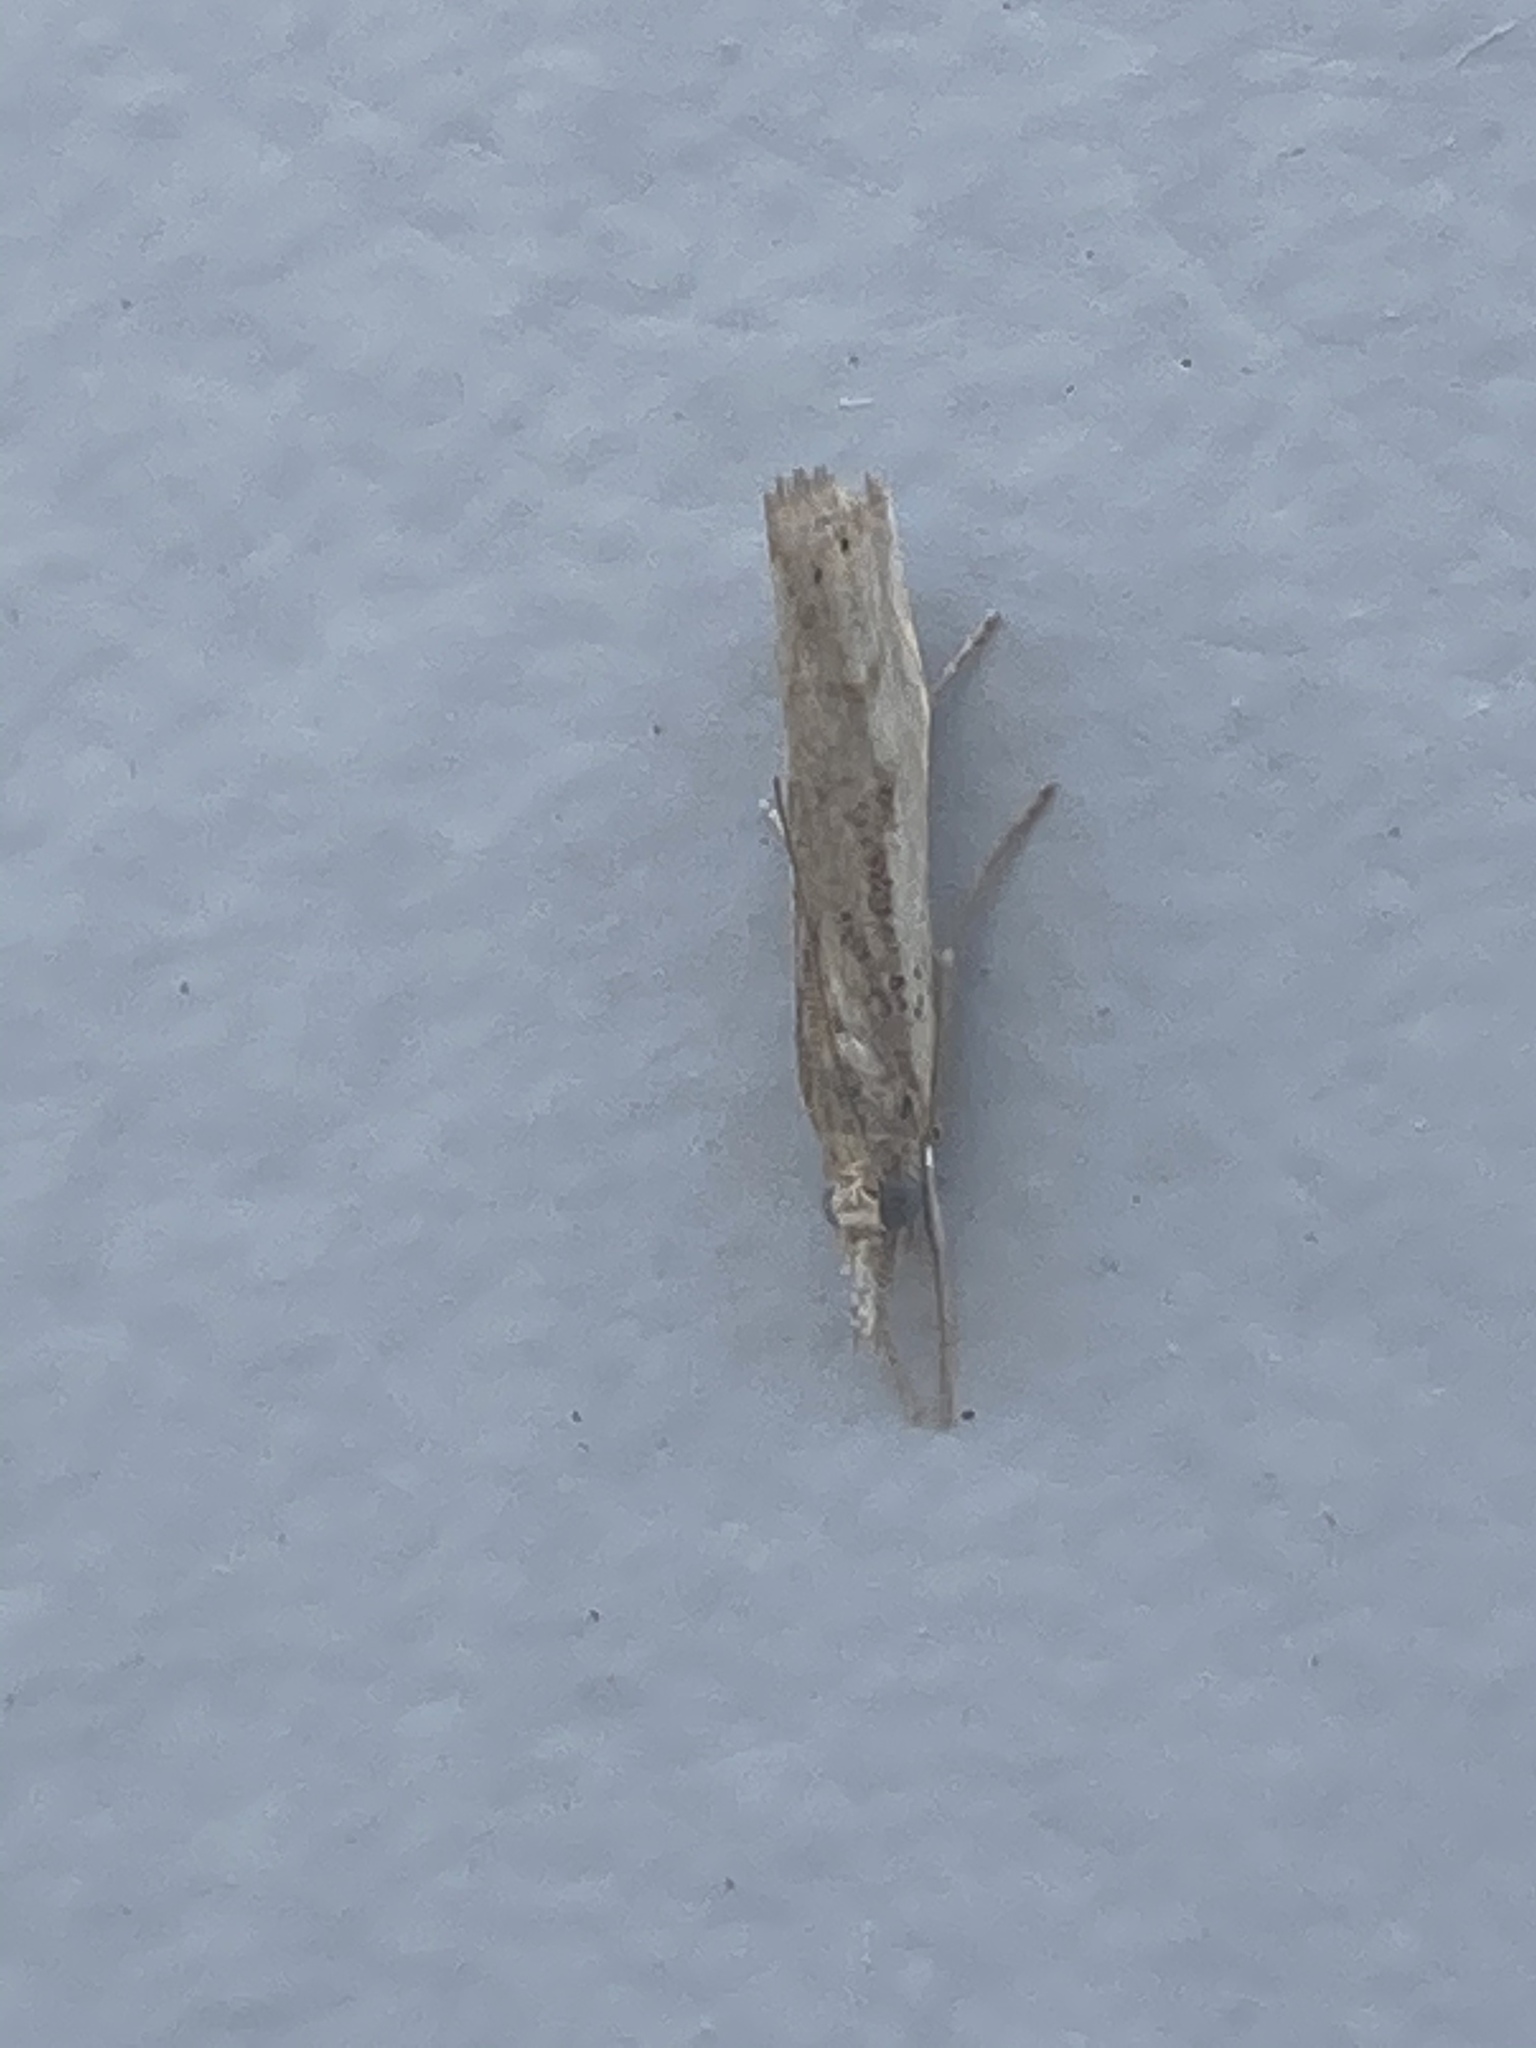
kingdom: Animalia
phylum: Arthropoda
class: Insecta
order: Lepidoptera
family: Crambidae
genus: Agriphila
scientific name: Agriphila inquinatella
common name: Barred grass-veneer
